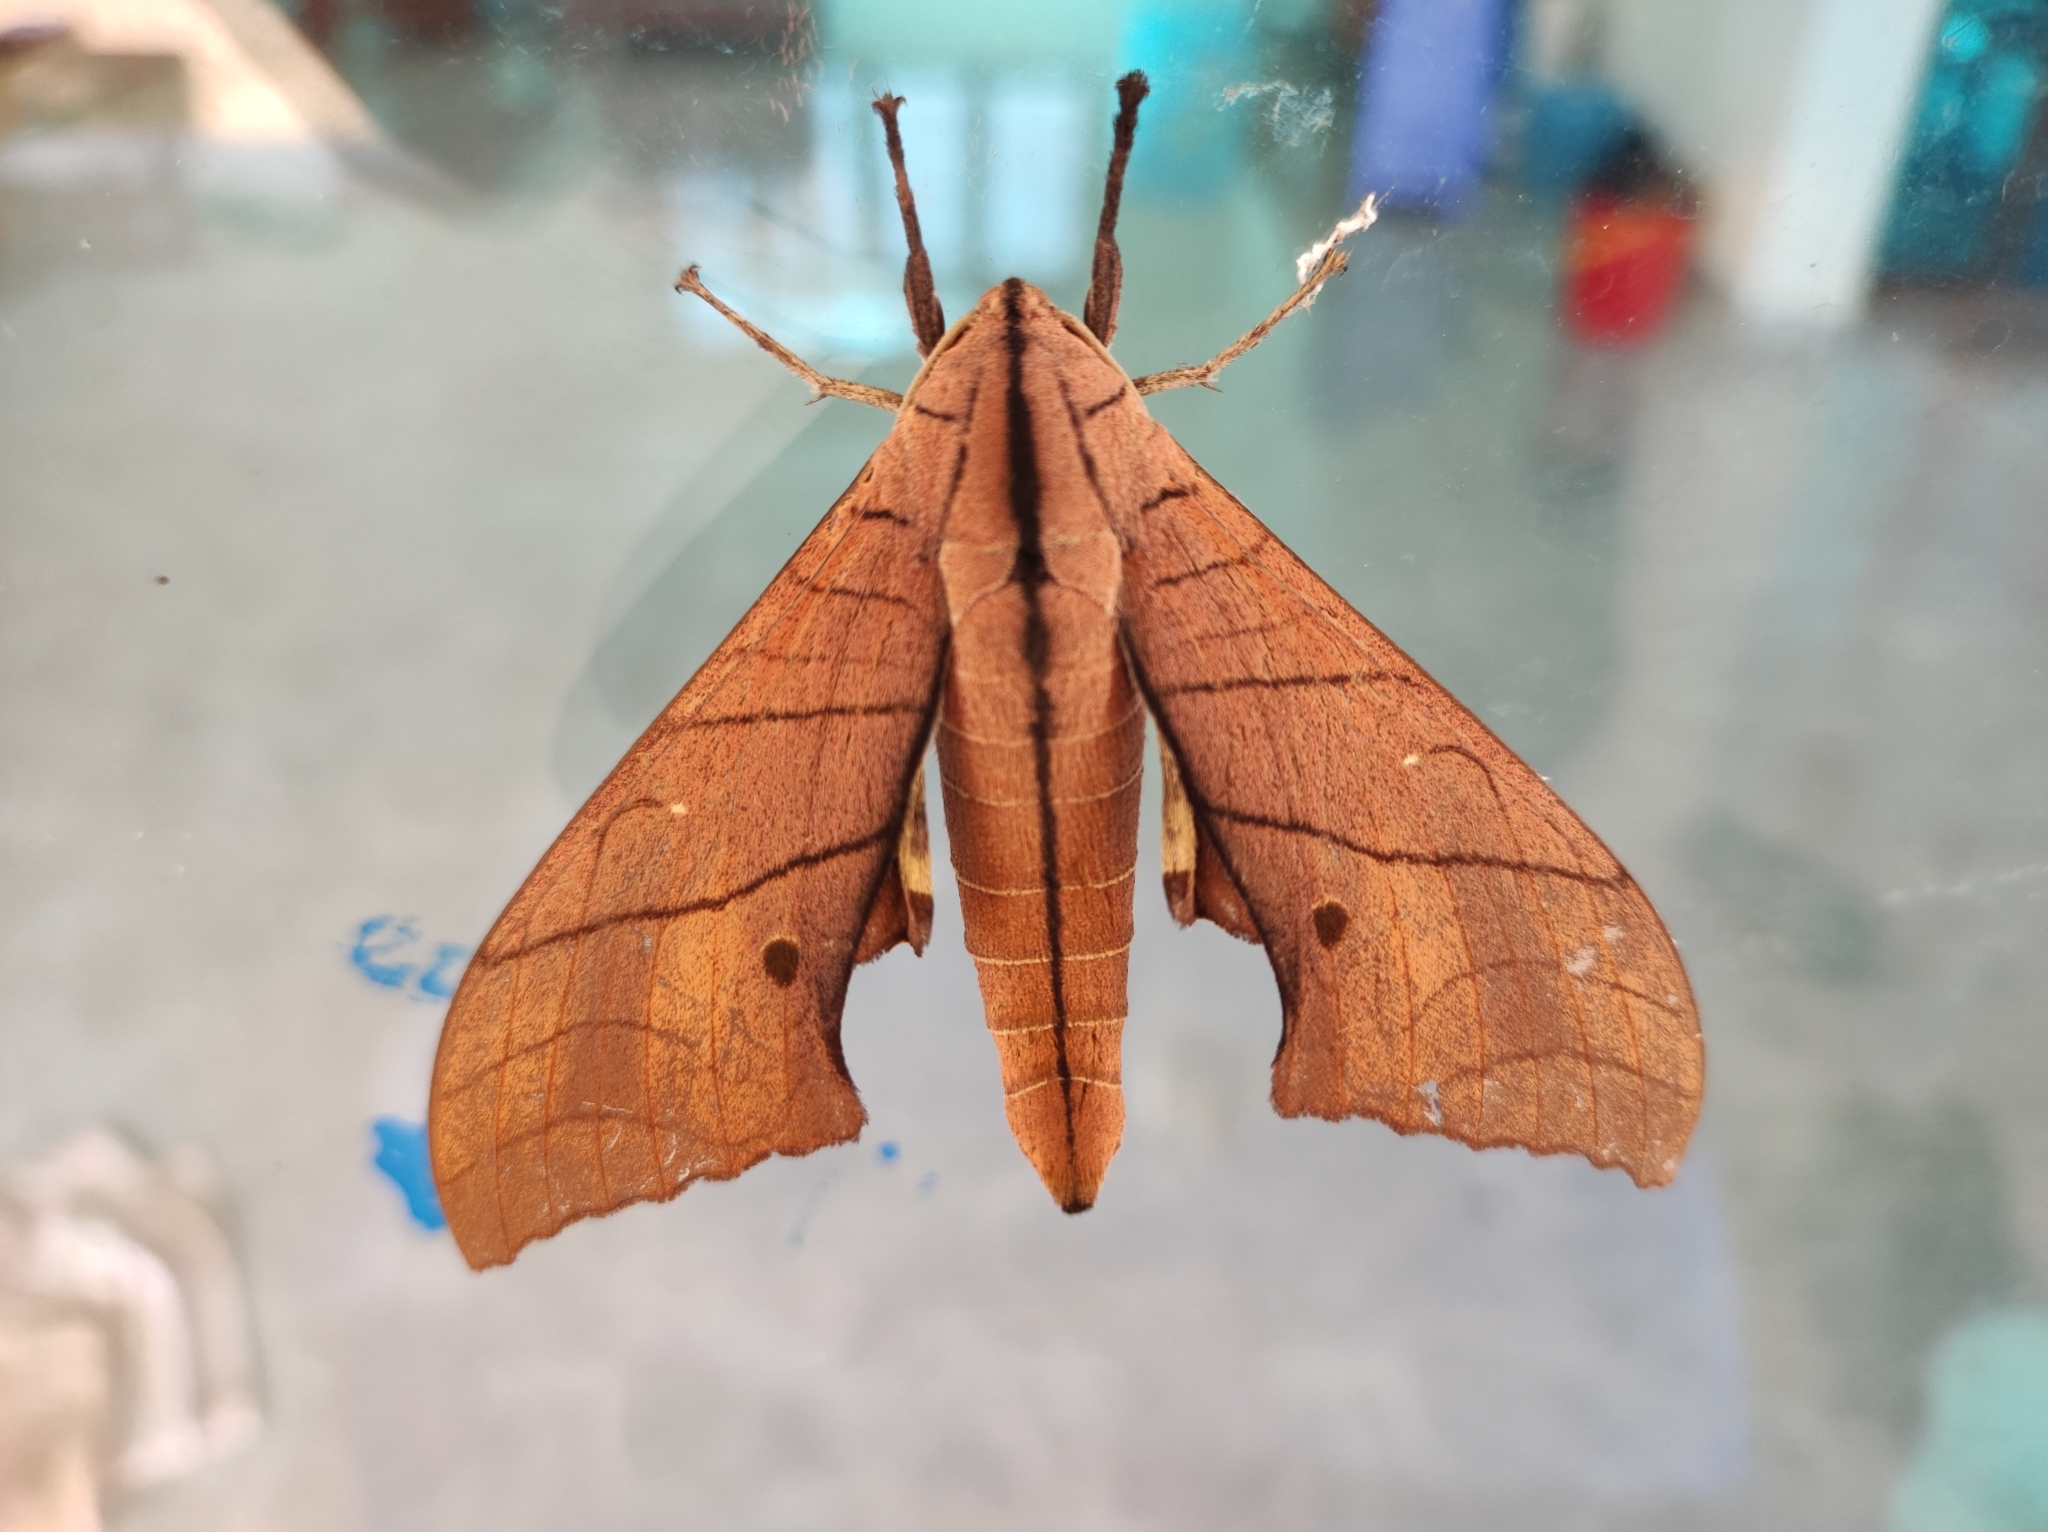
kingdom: Animalia
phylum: Arthropoda
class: Insecta
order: Lepidoptera
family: Sphingidae
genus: Marumba
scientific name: Marumba cristata
